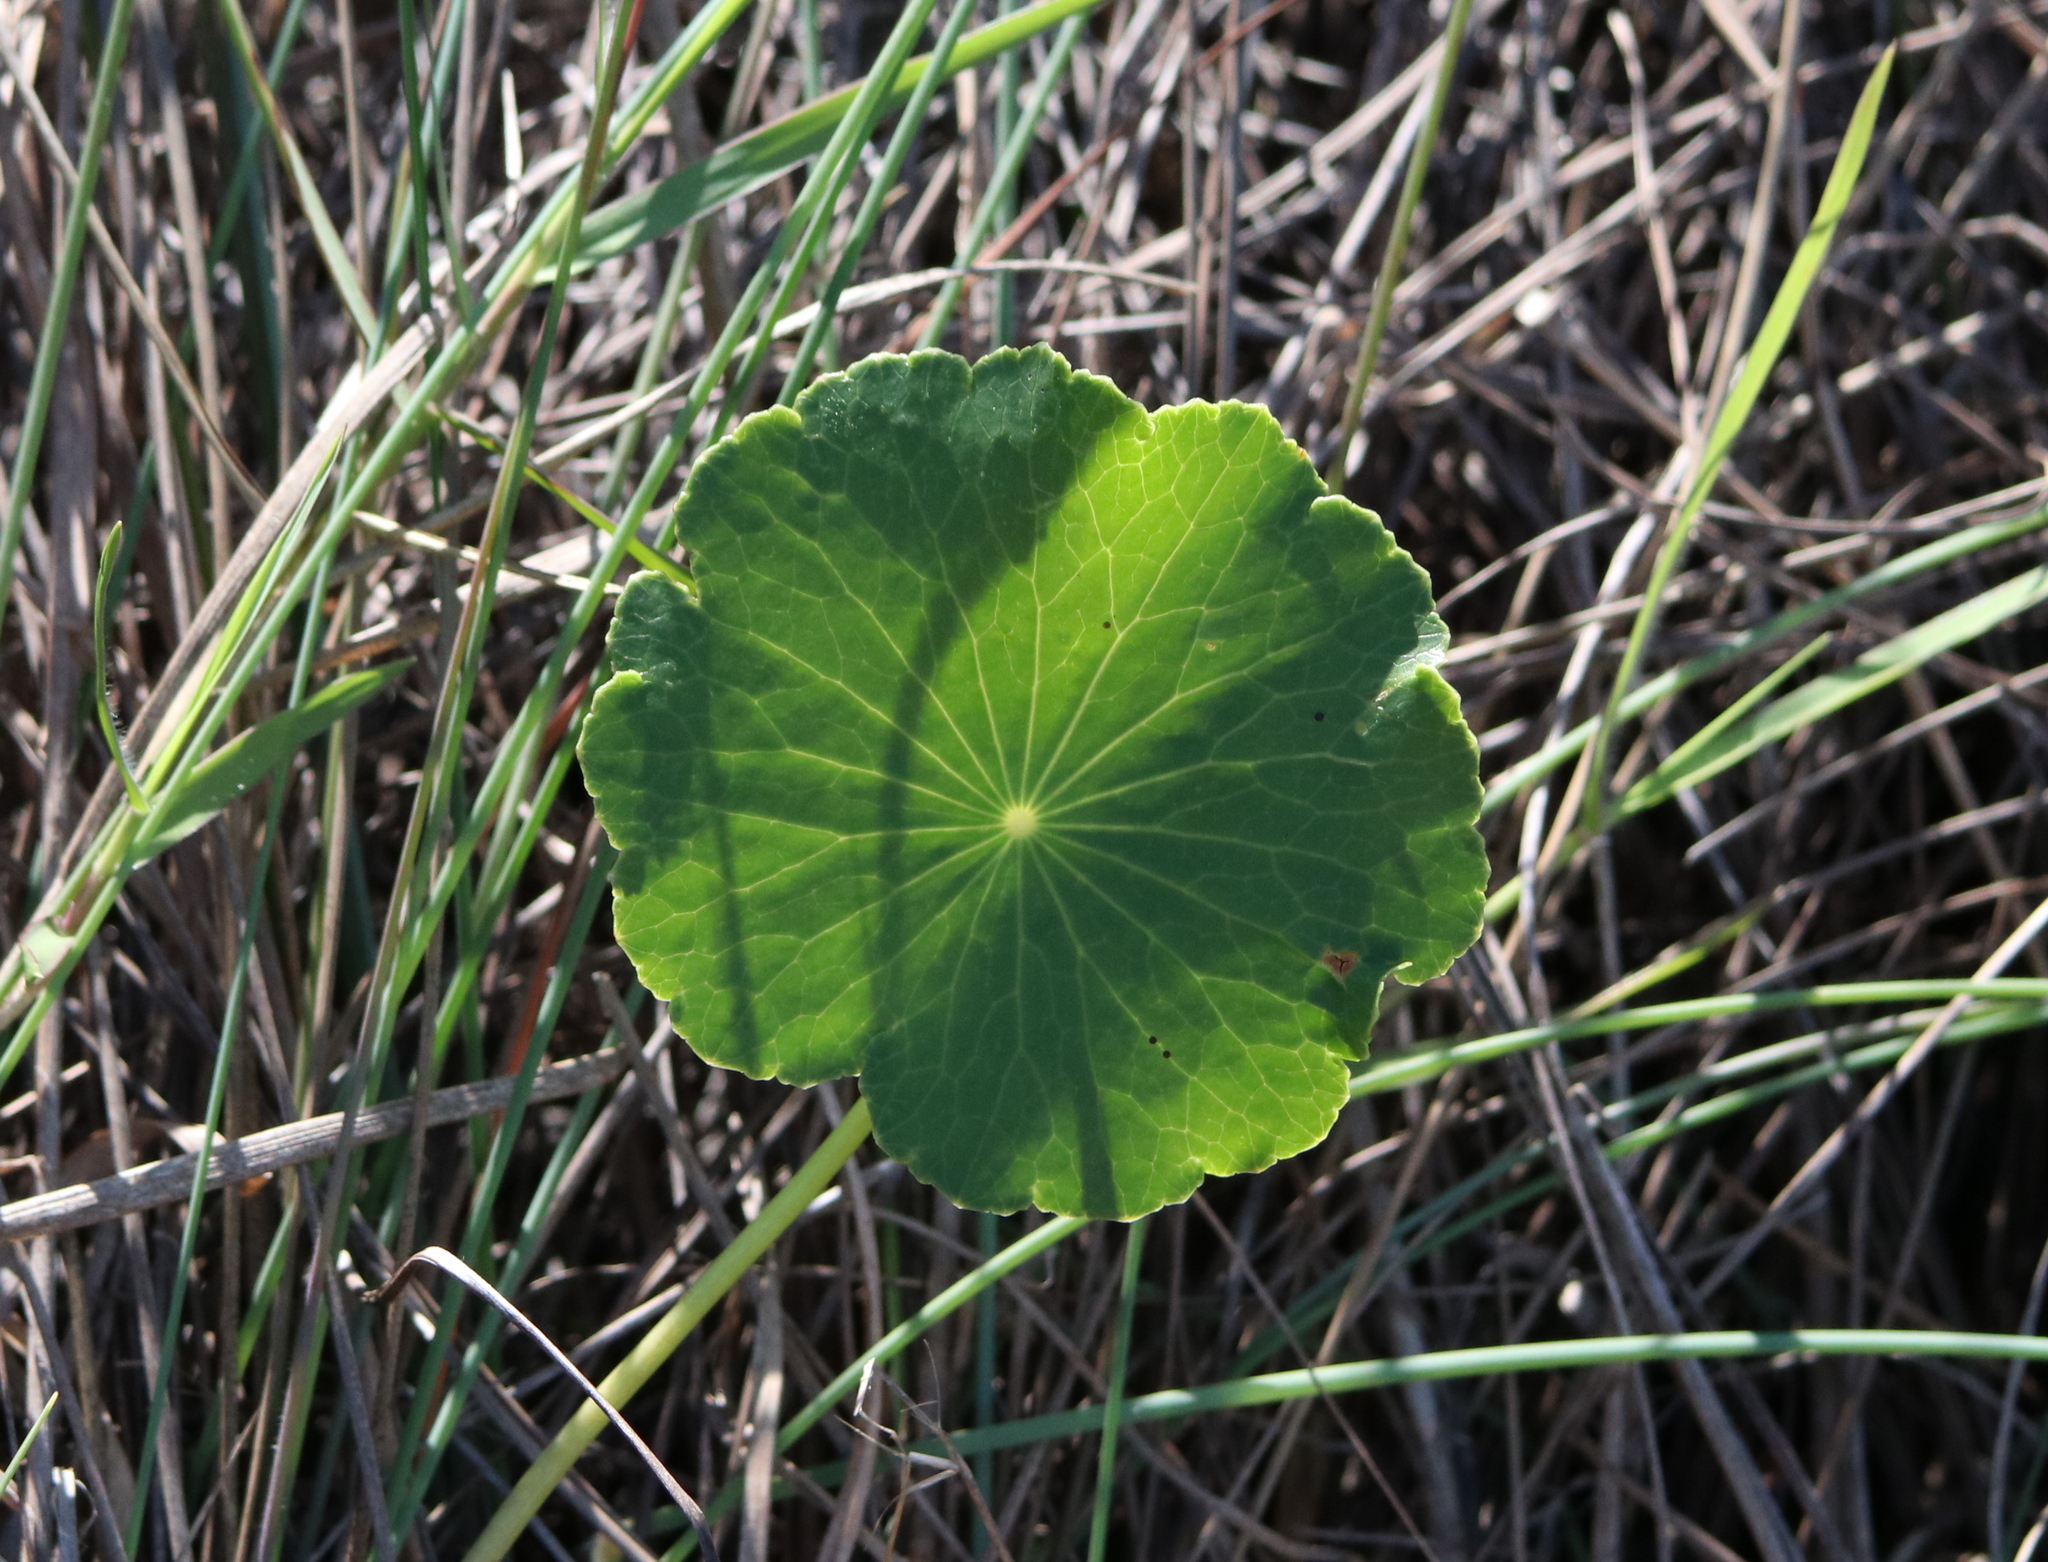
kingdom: Plantae
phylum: Tracheophyta
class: Magnoliopsida
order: Apiales
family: Araliaceae
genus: Hydrocotyle
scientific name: Hydrocotyle bonariensis
